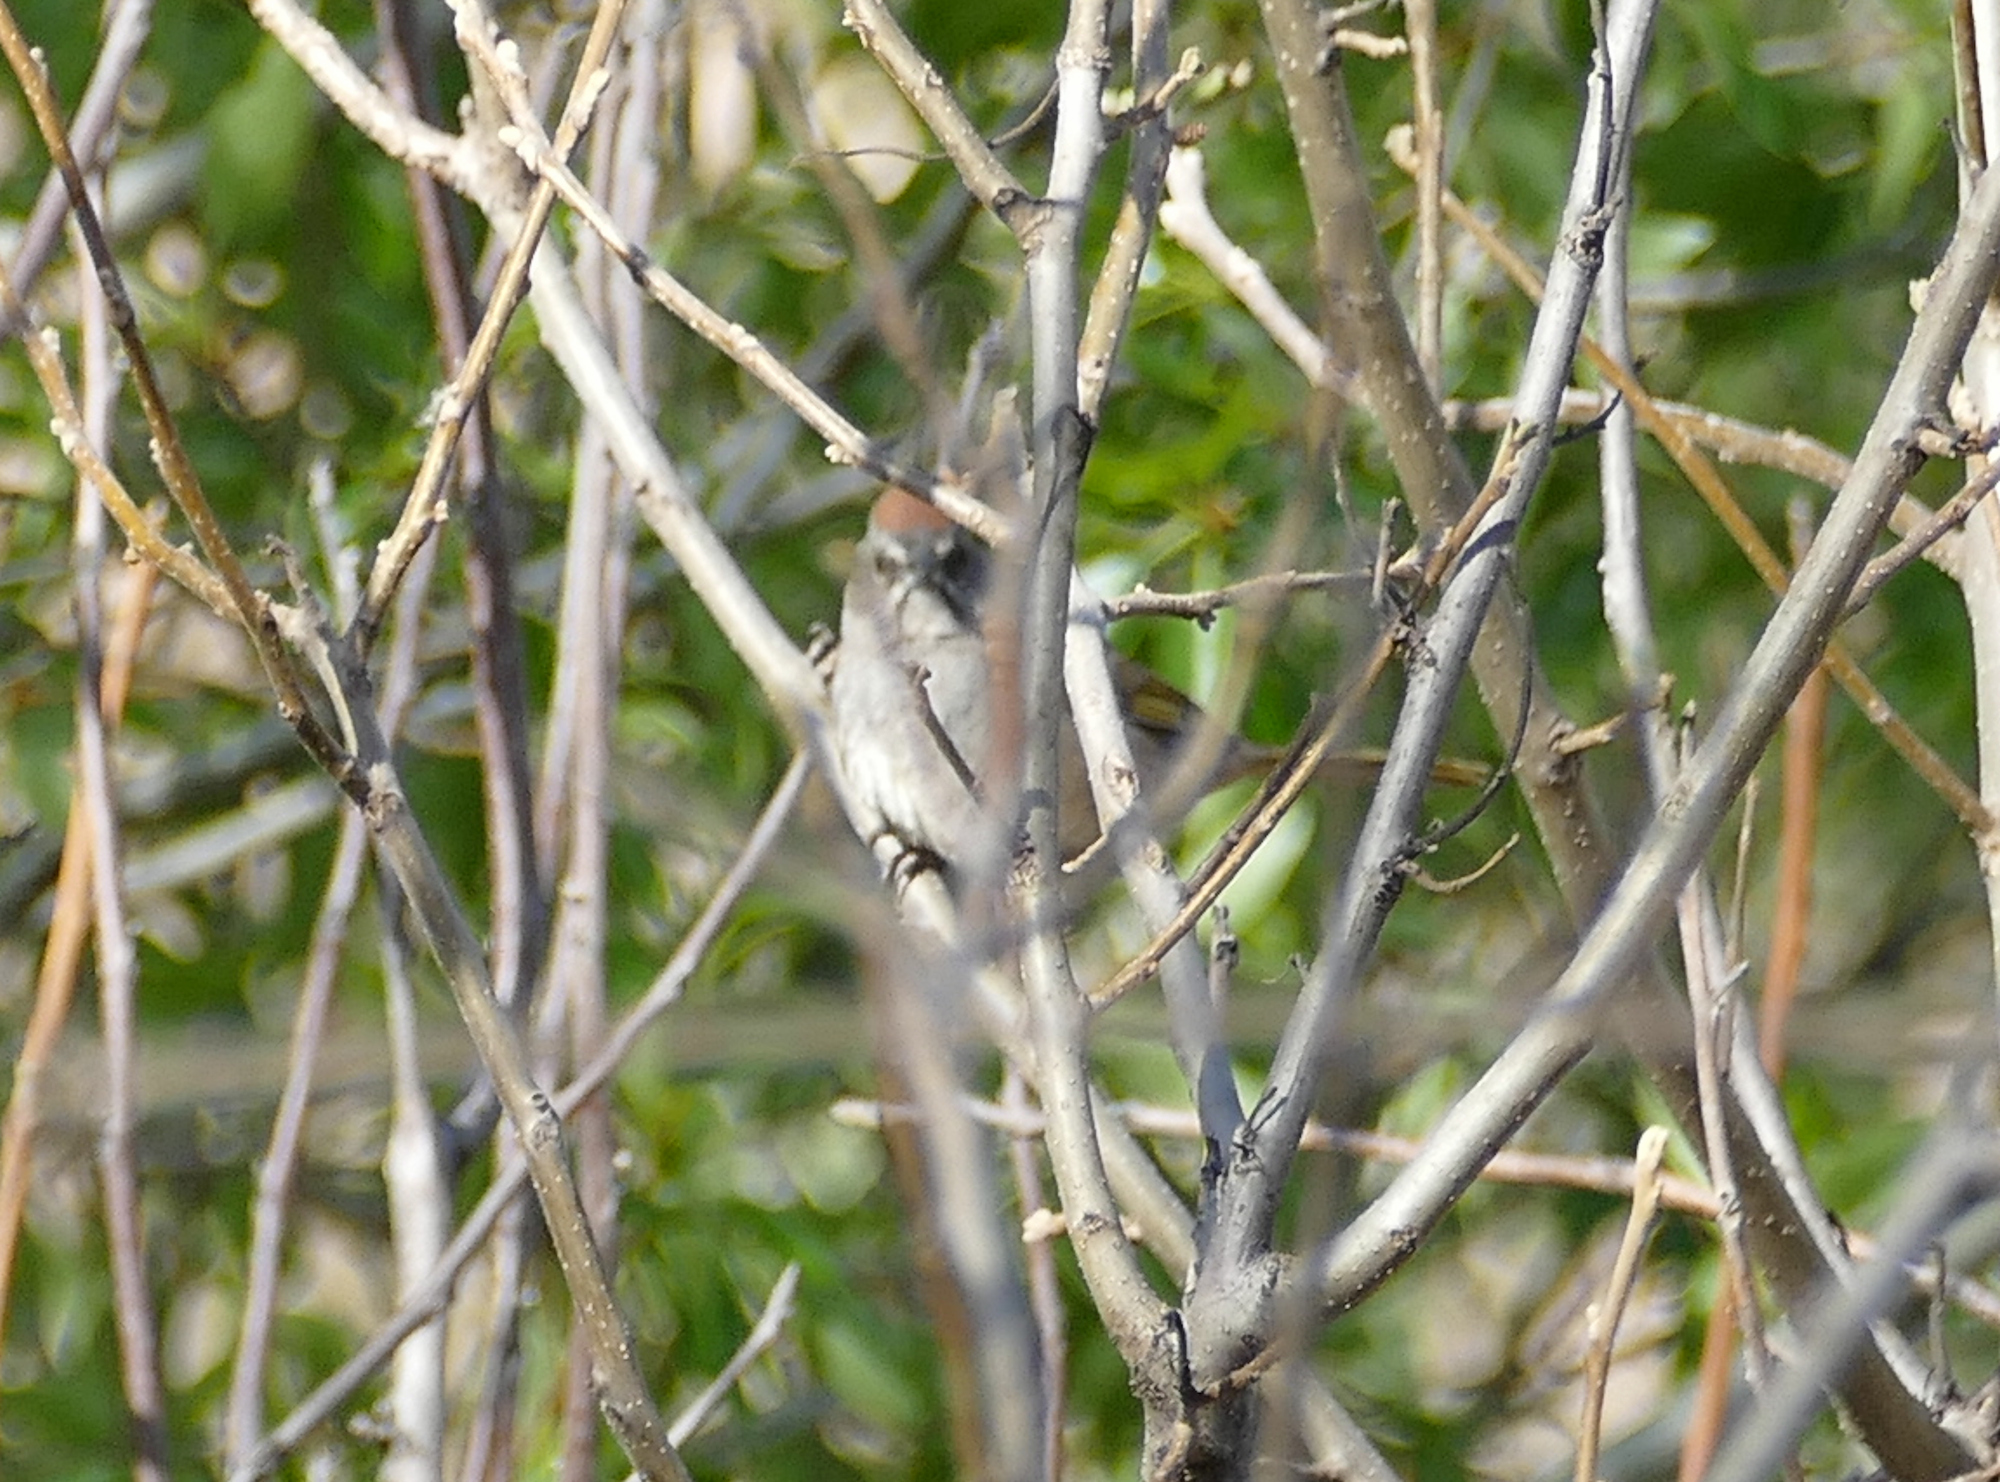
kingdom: Animalia
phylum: Chordata
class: Aves
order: Passeriformes
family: Passerellidae
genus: Pipilo
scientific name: Pipilo chlorurus
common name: Green-tailed towhee
